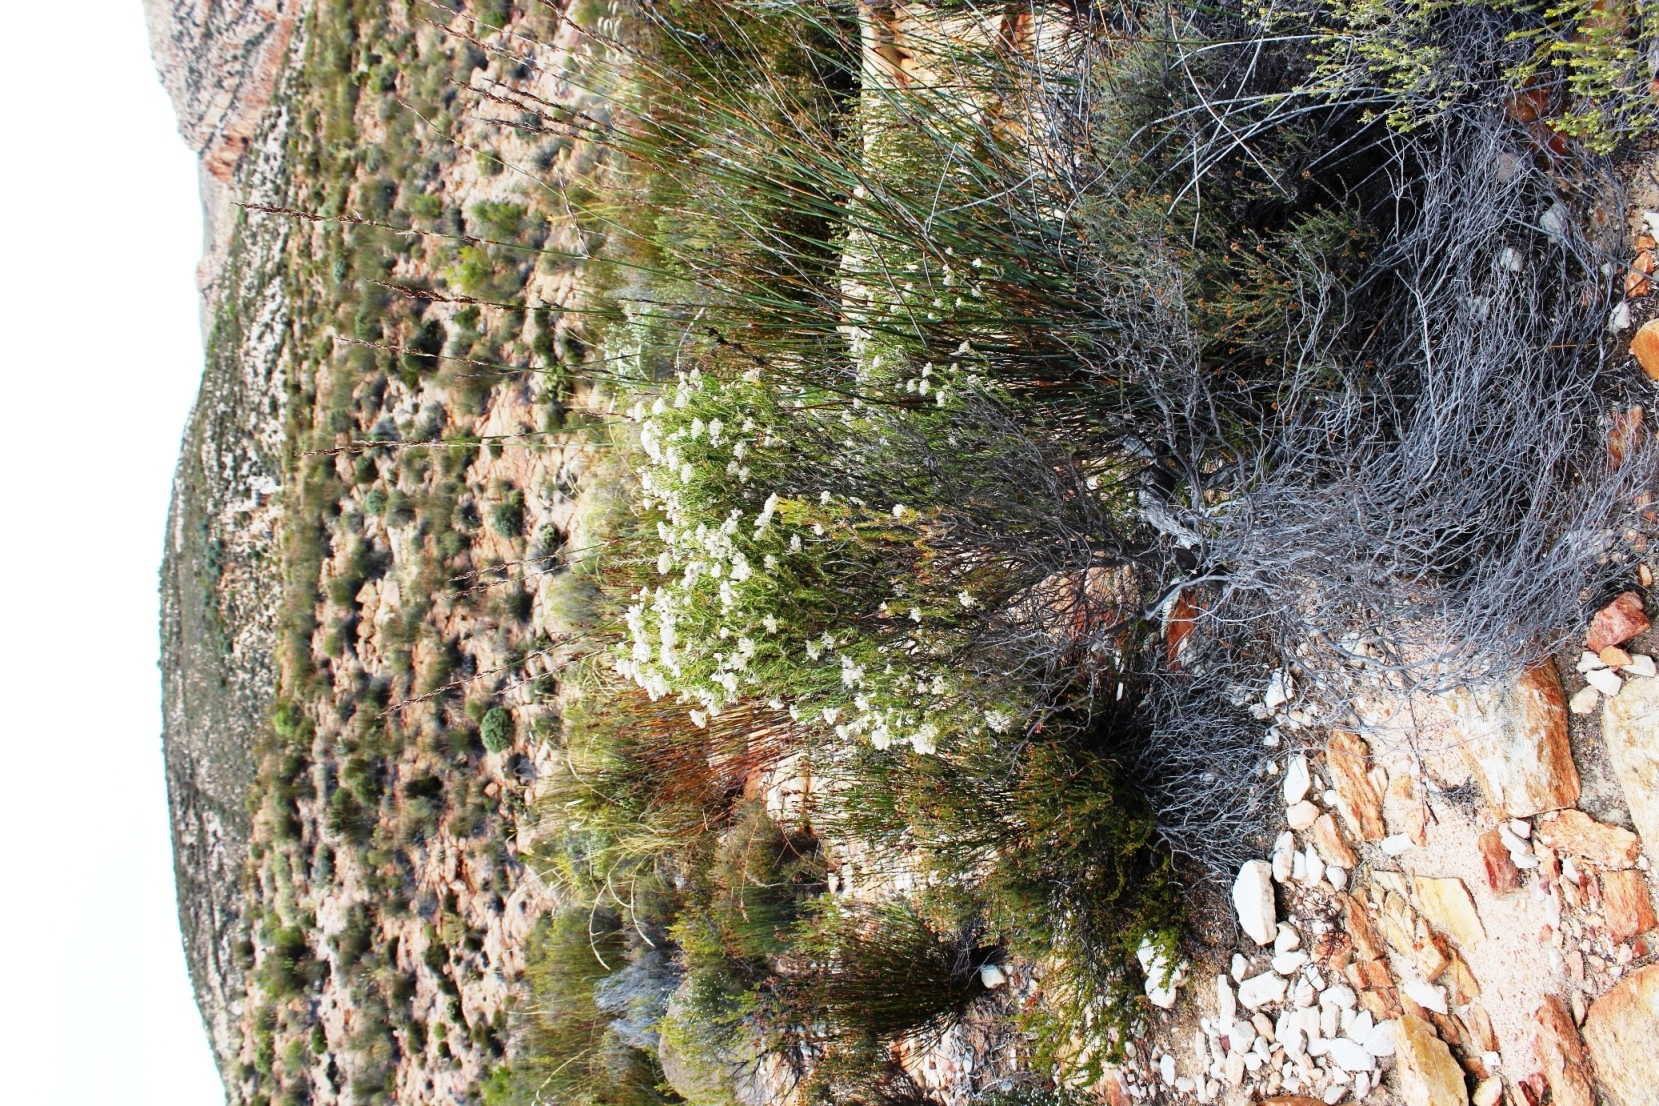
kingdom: Plantae
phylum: Tracheophyta
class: Magnoliopsida
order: Asterales
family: Asteraceae
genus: Metalasia
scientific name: Metalasia pulcherrima
